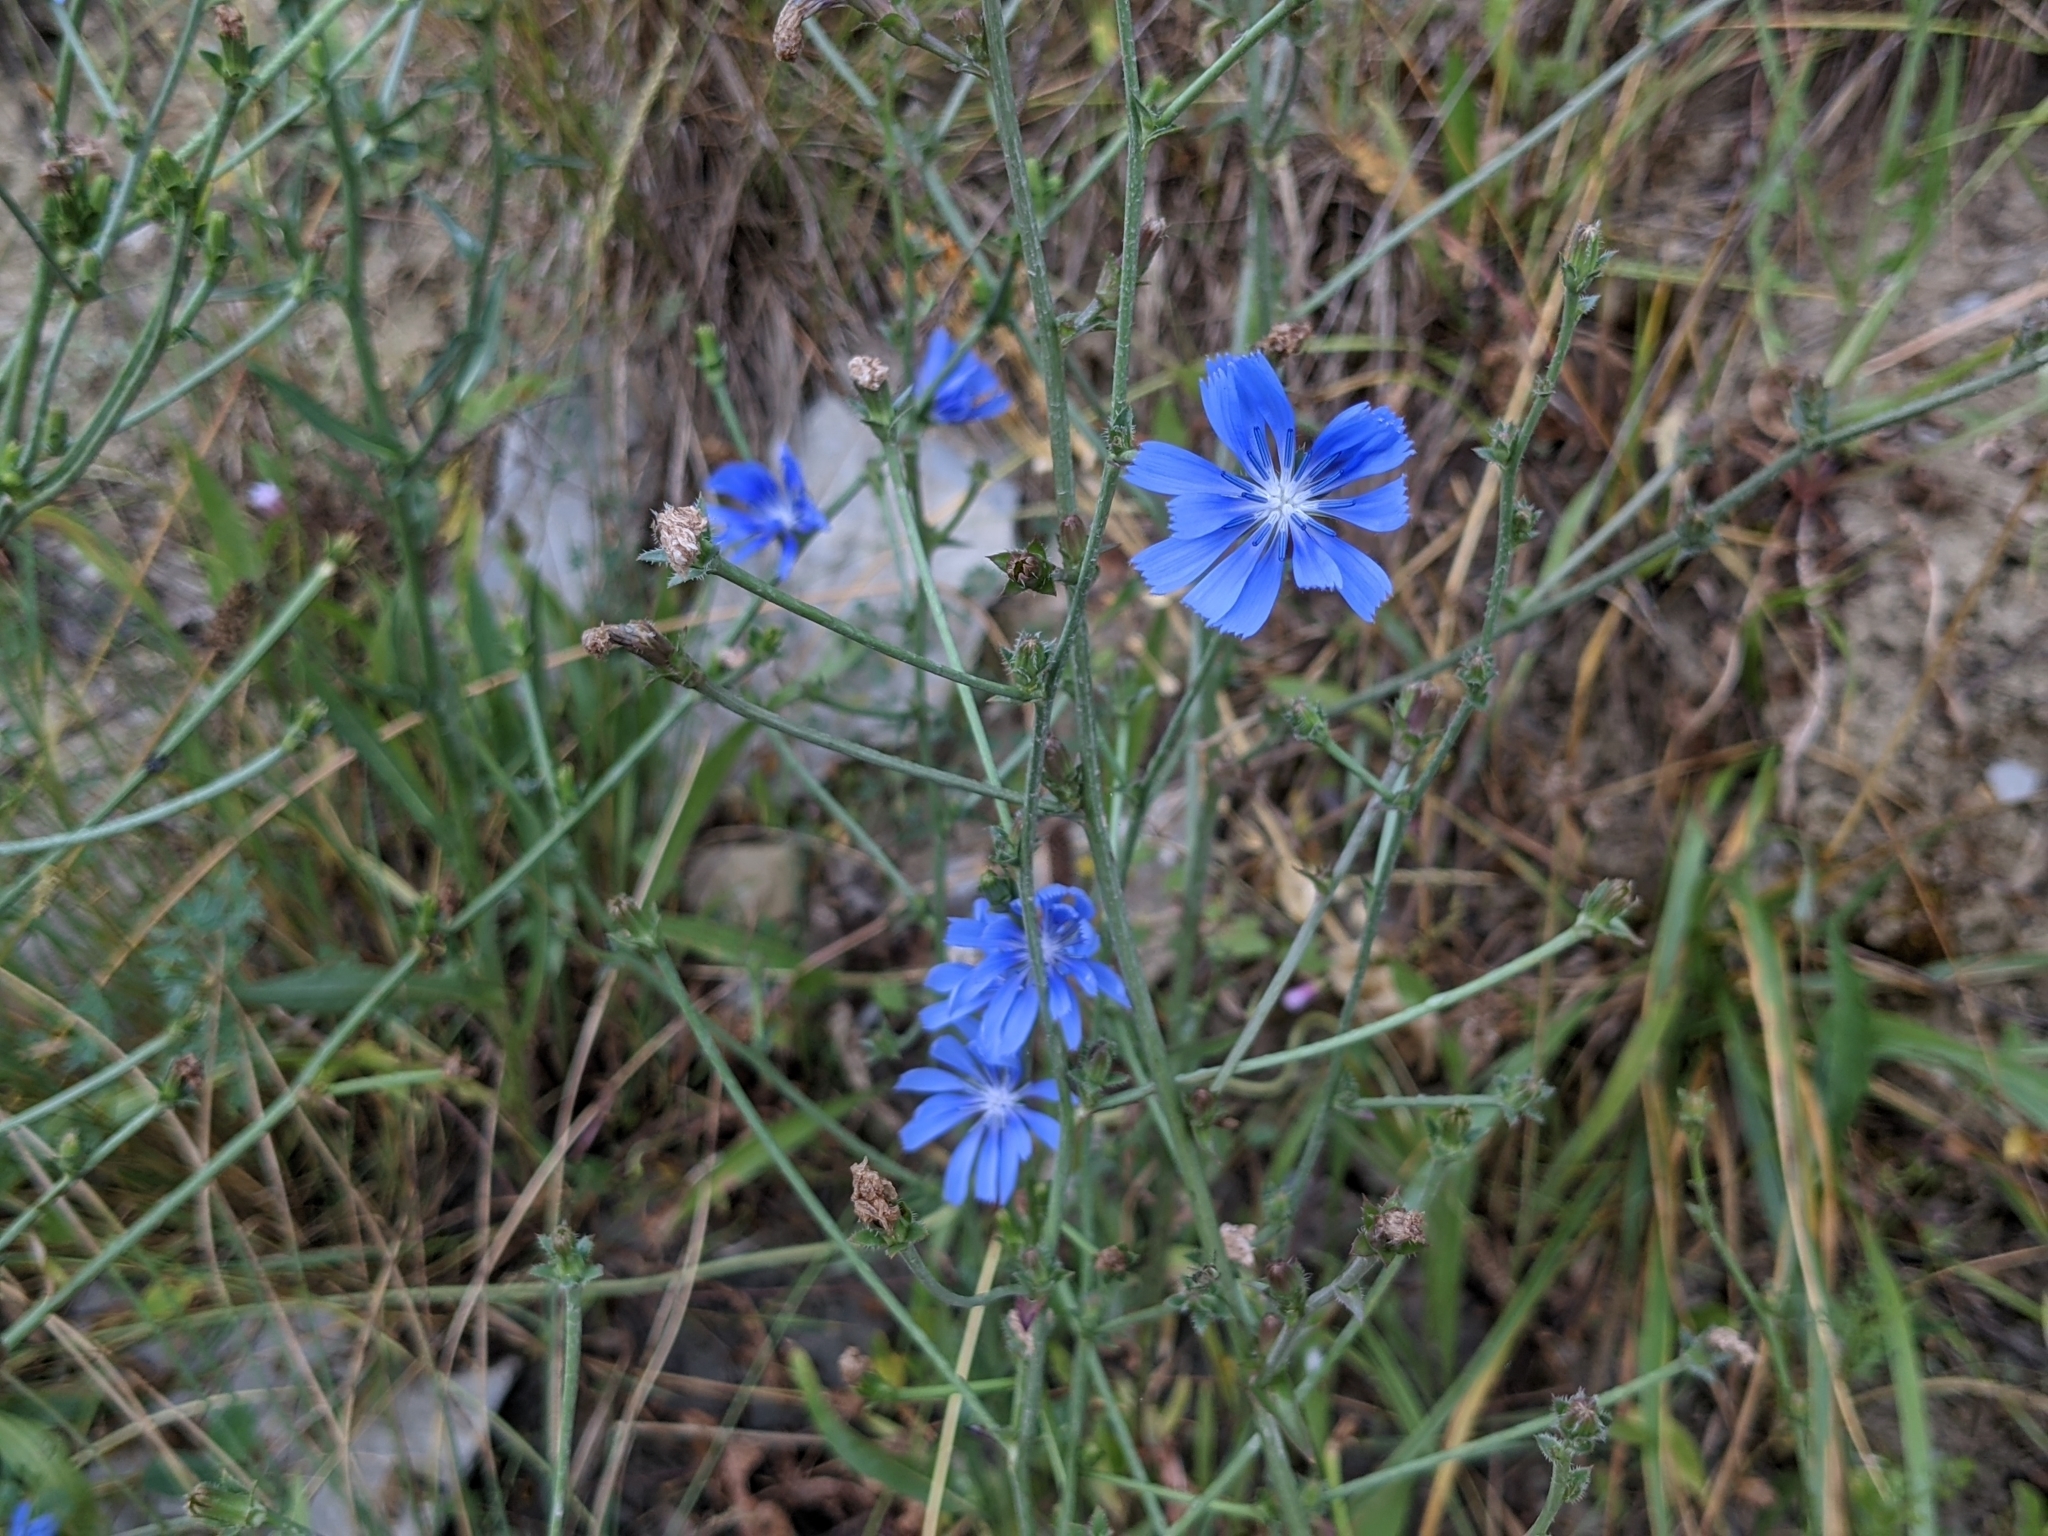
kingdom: Plantae
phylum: Tracheophyta
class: Magnoliopsida
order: Asterales
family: Asteraceae
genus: Cichorium
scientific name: Cichorium intybus
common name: Chicory
